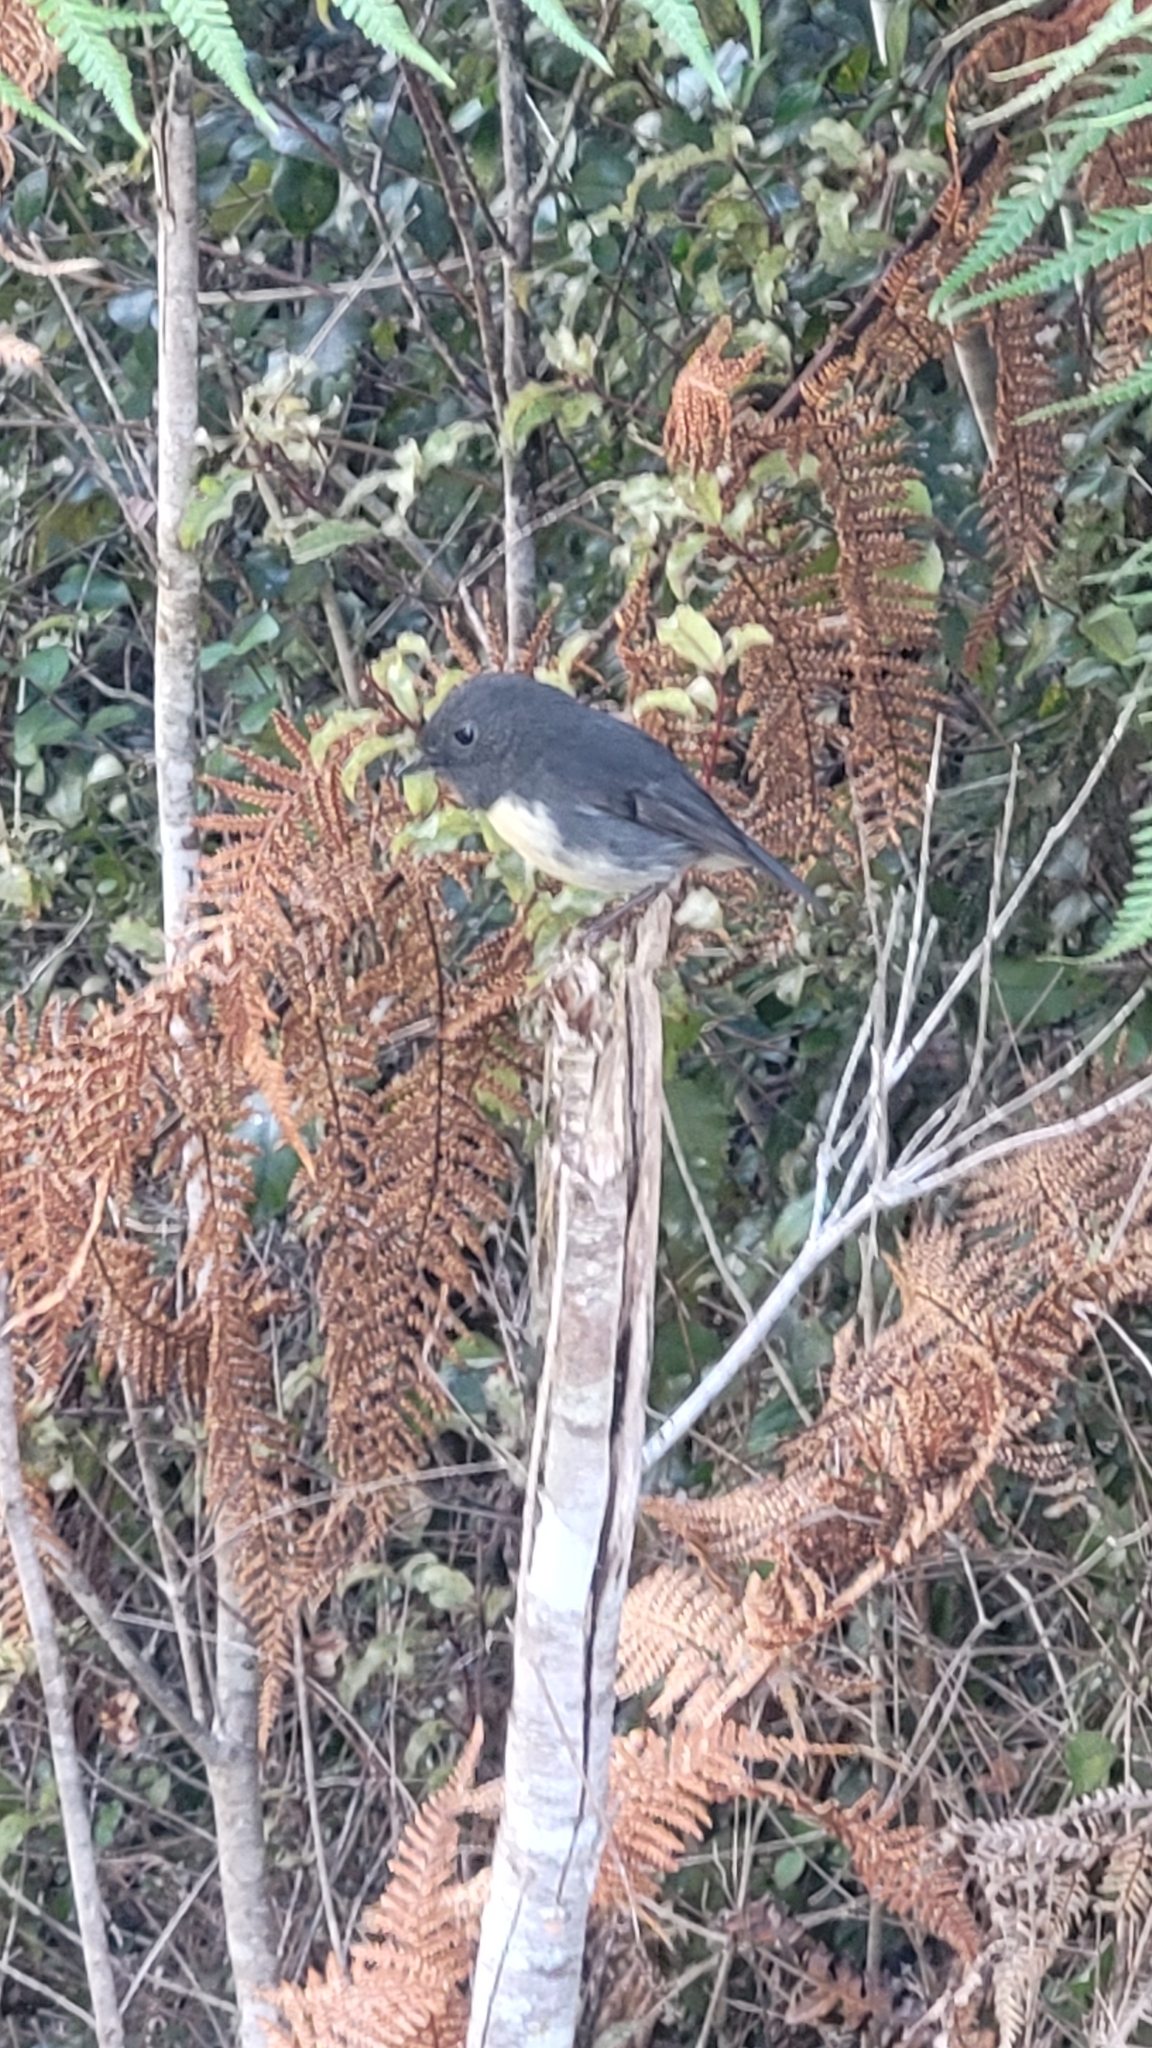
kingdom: Animalia
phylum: Chordata
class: Aves
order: Passeriformes
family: Petroicidae
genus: Petroica
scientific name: Petroica australis
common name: New zealand robin
